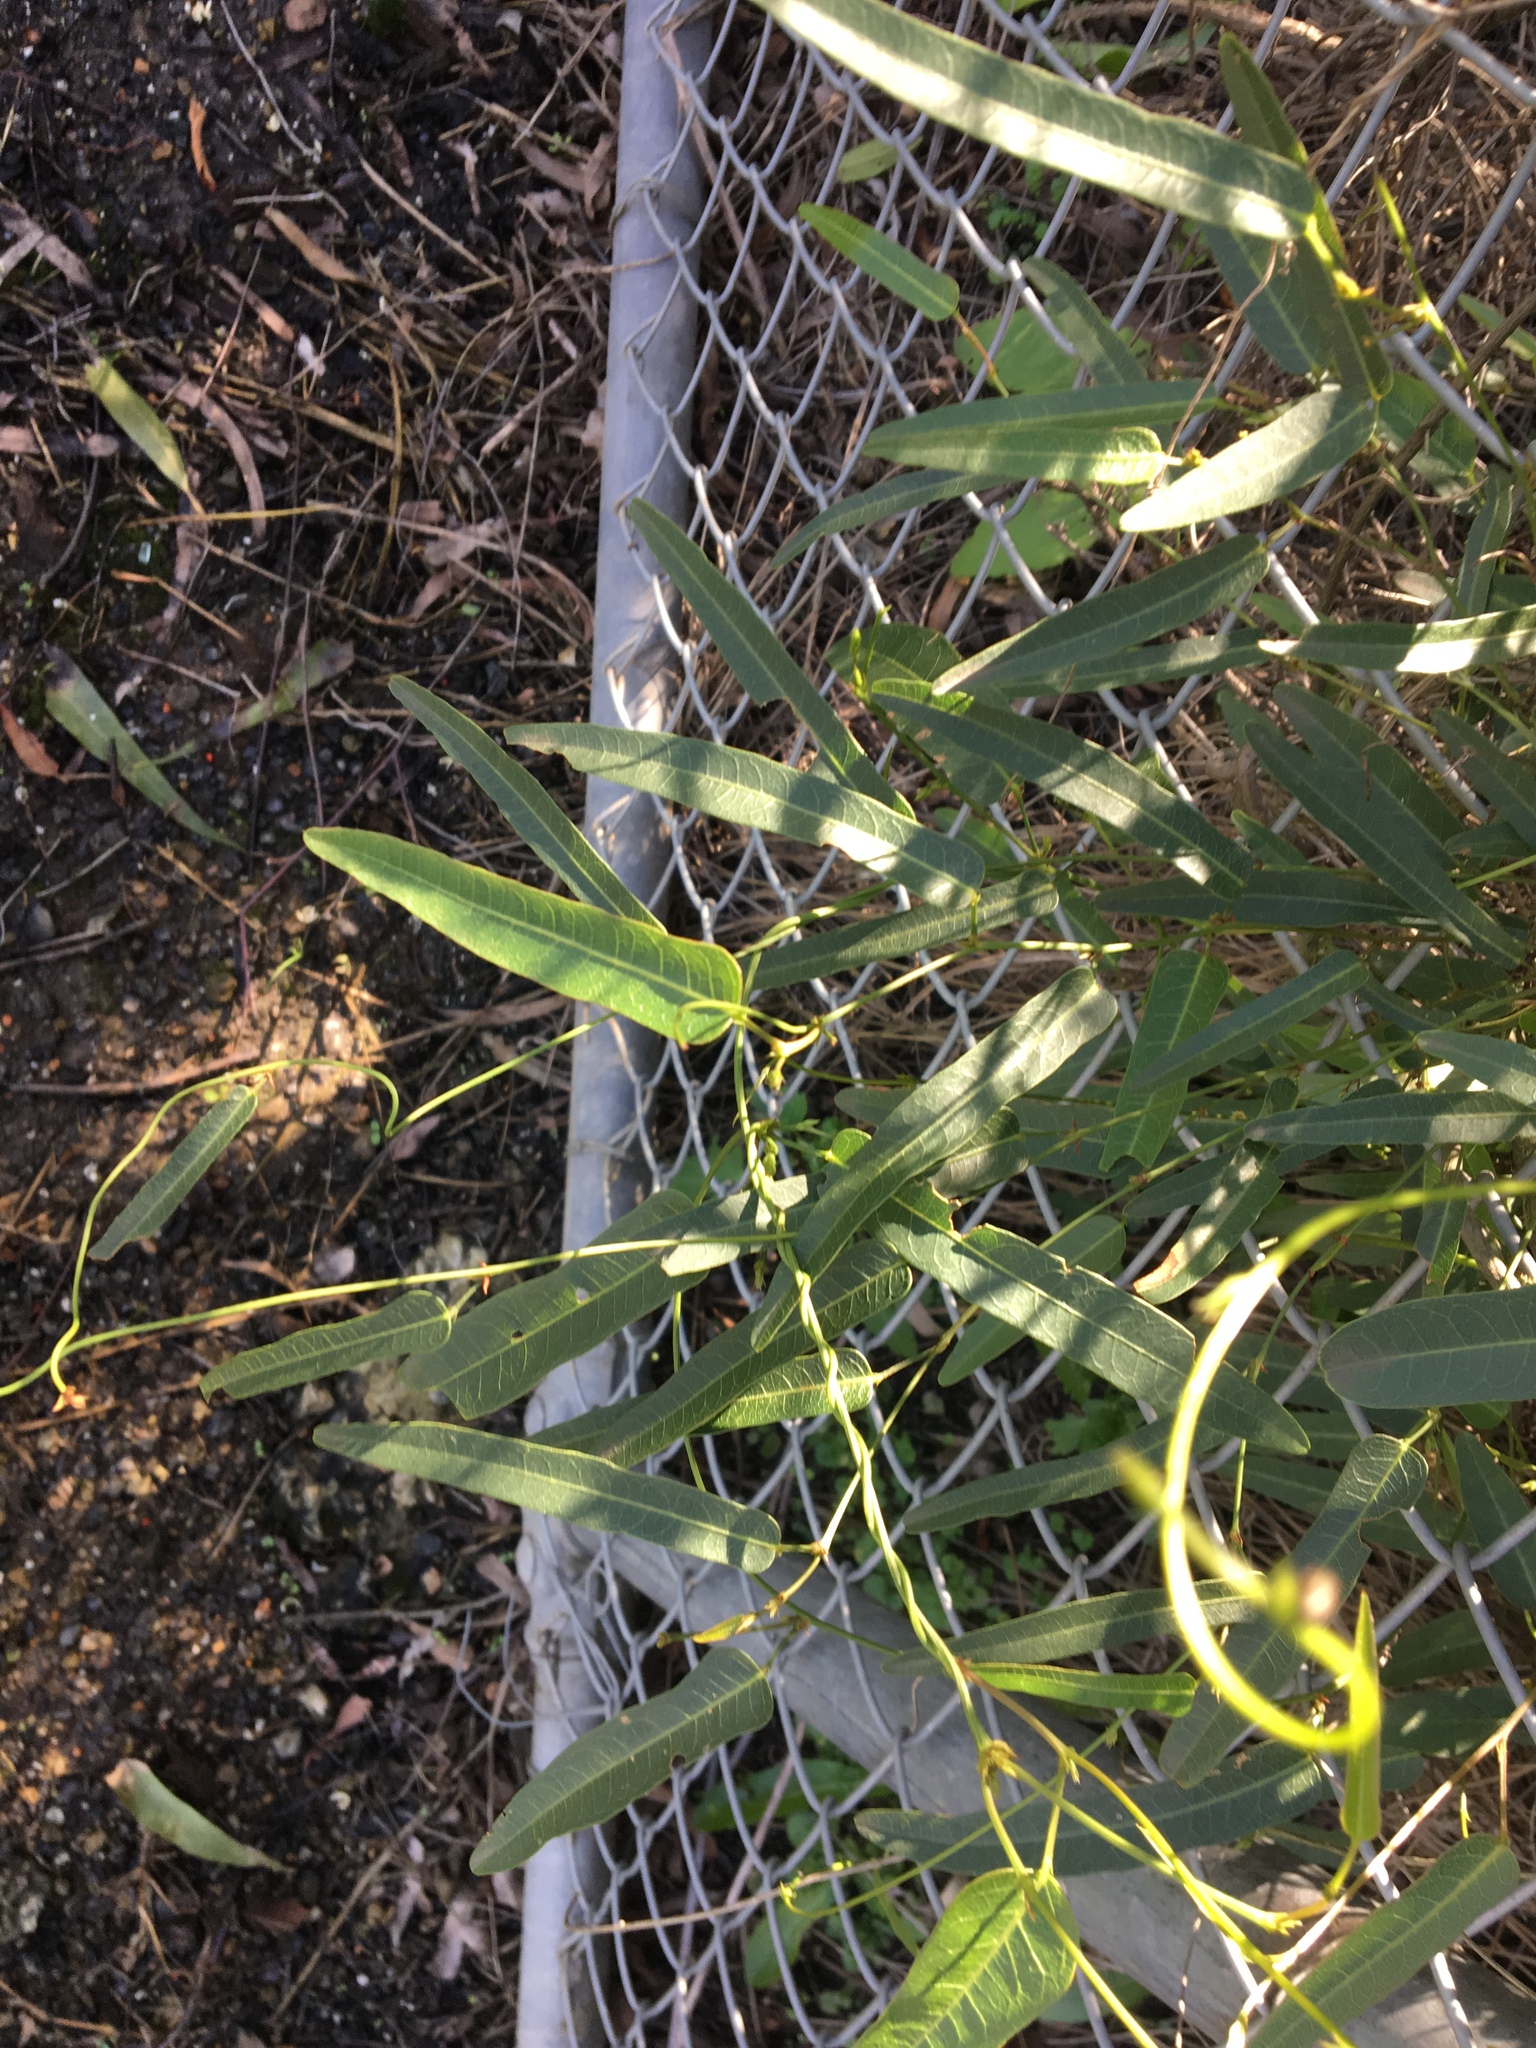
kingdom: Plantae
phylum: Tracheophyta
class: Magnoliopsida
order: Fabales
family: Fabaceae
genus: Hardenbergia
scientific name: Hardenbergia violacea
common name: Coral-pea
